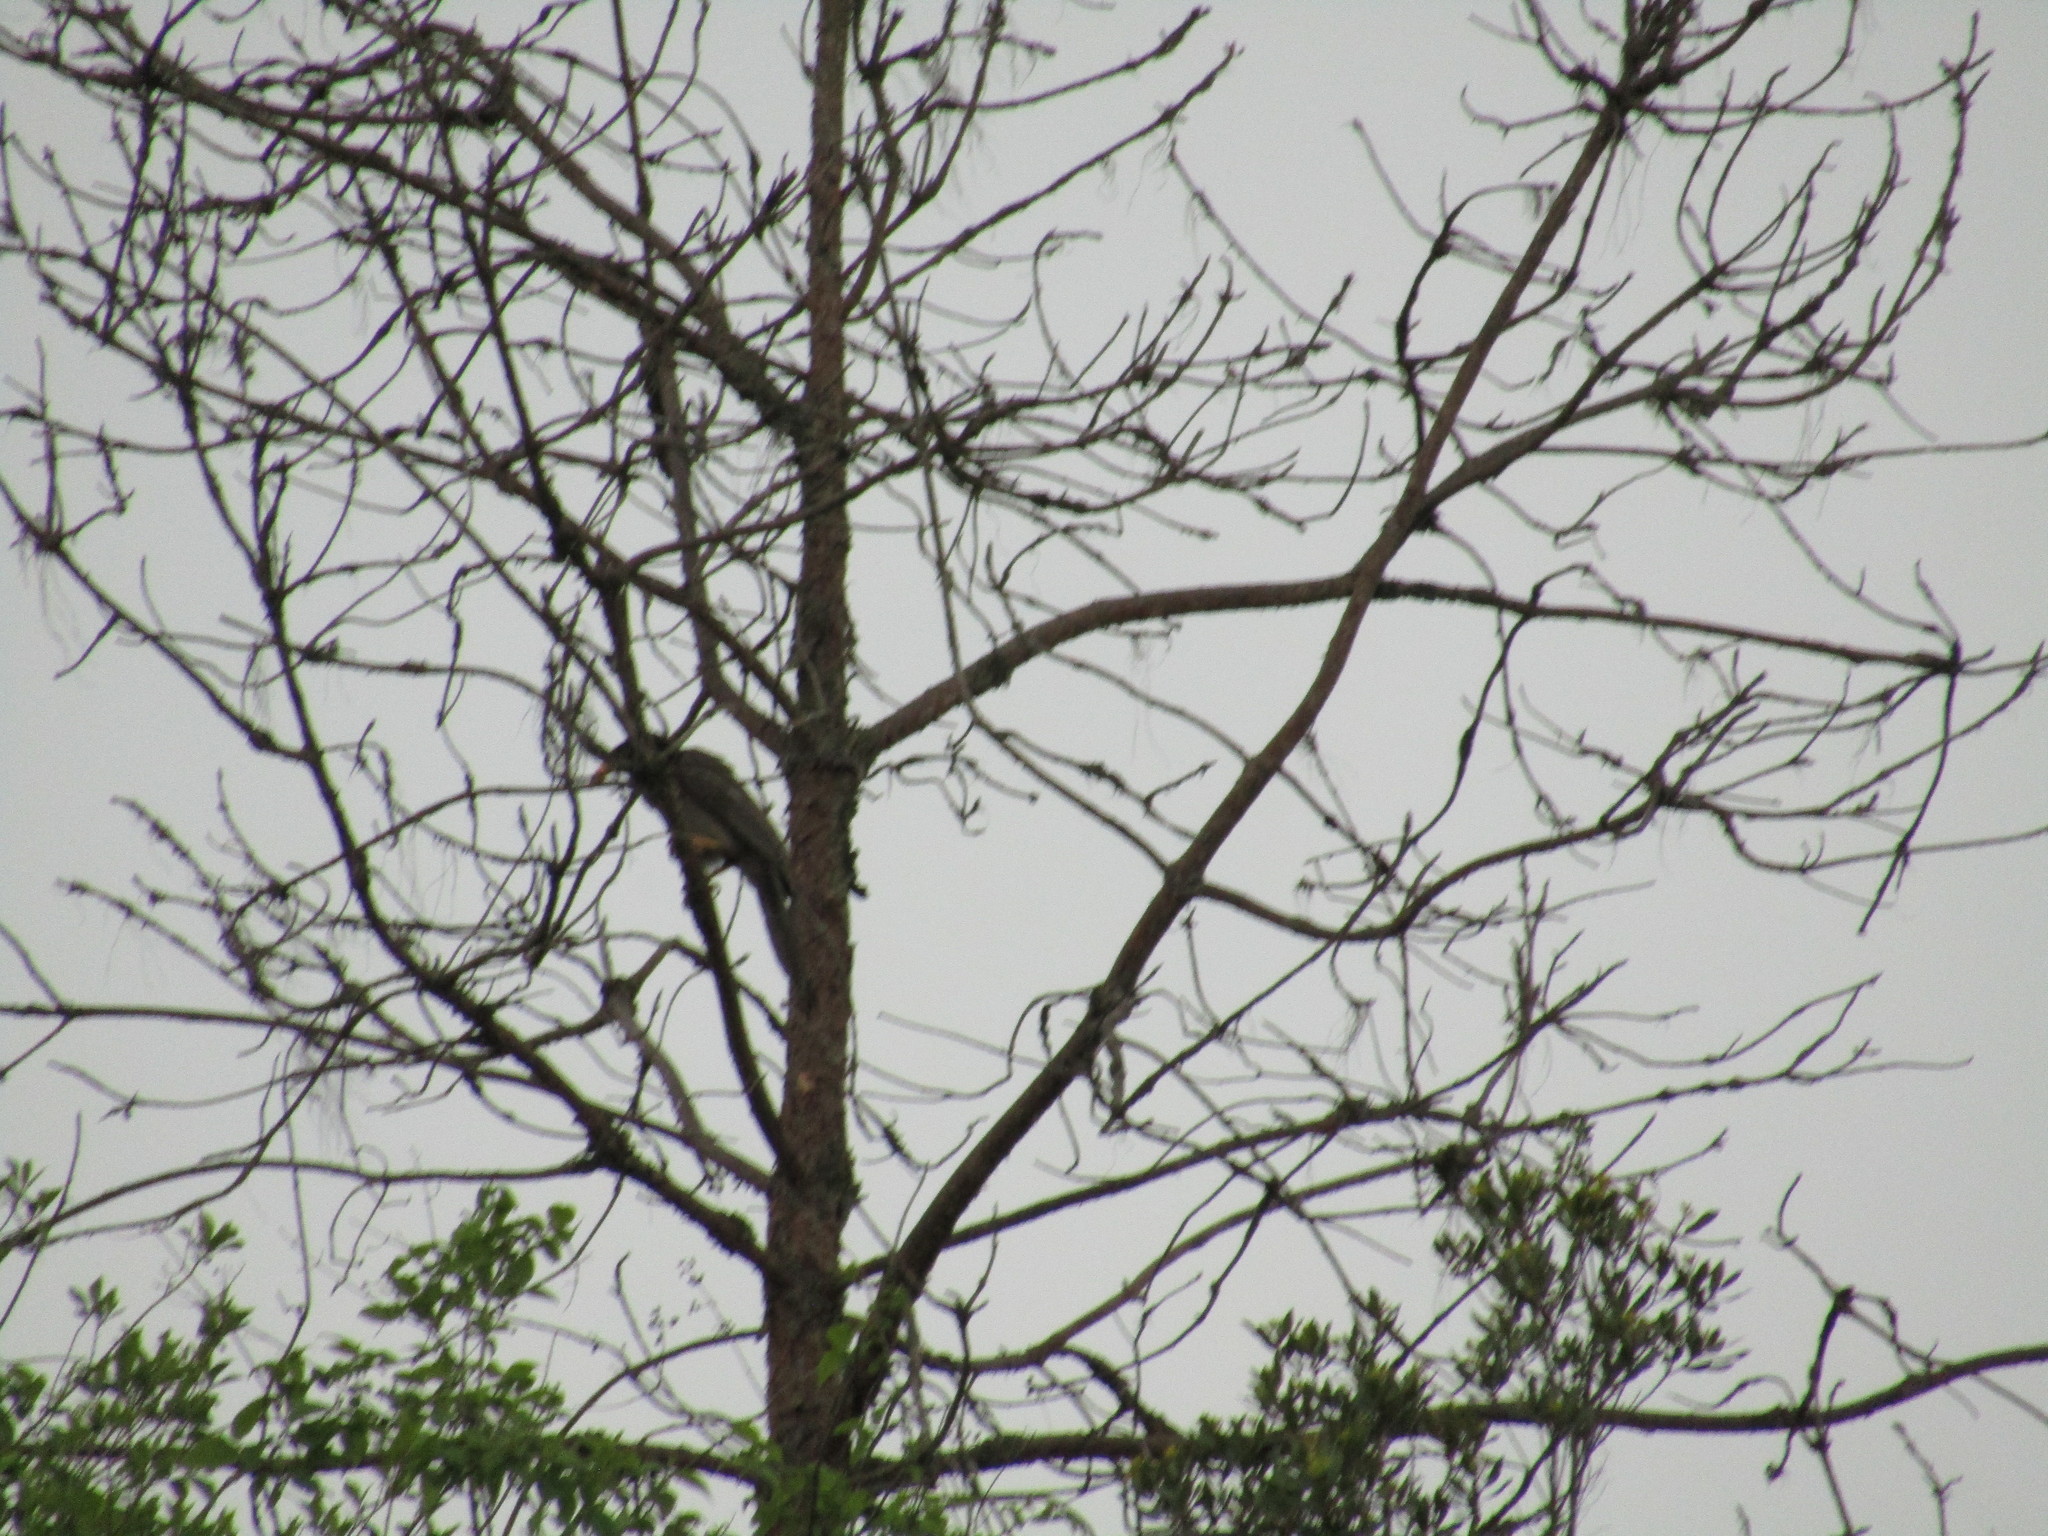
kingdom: Animalia
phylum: Chordata
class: Aves
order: Passeriformes
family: Corvidae
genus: Psilorhinus
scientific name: Psilorhinus morio
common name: Brown jay
